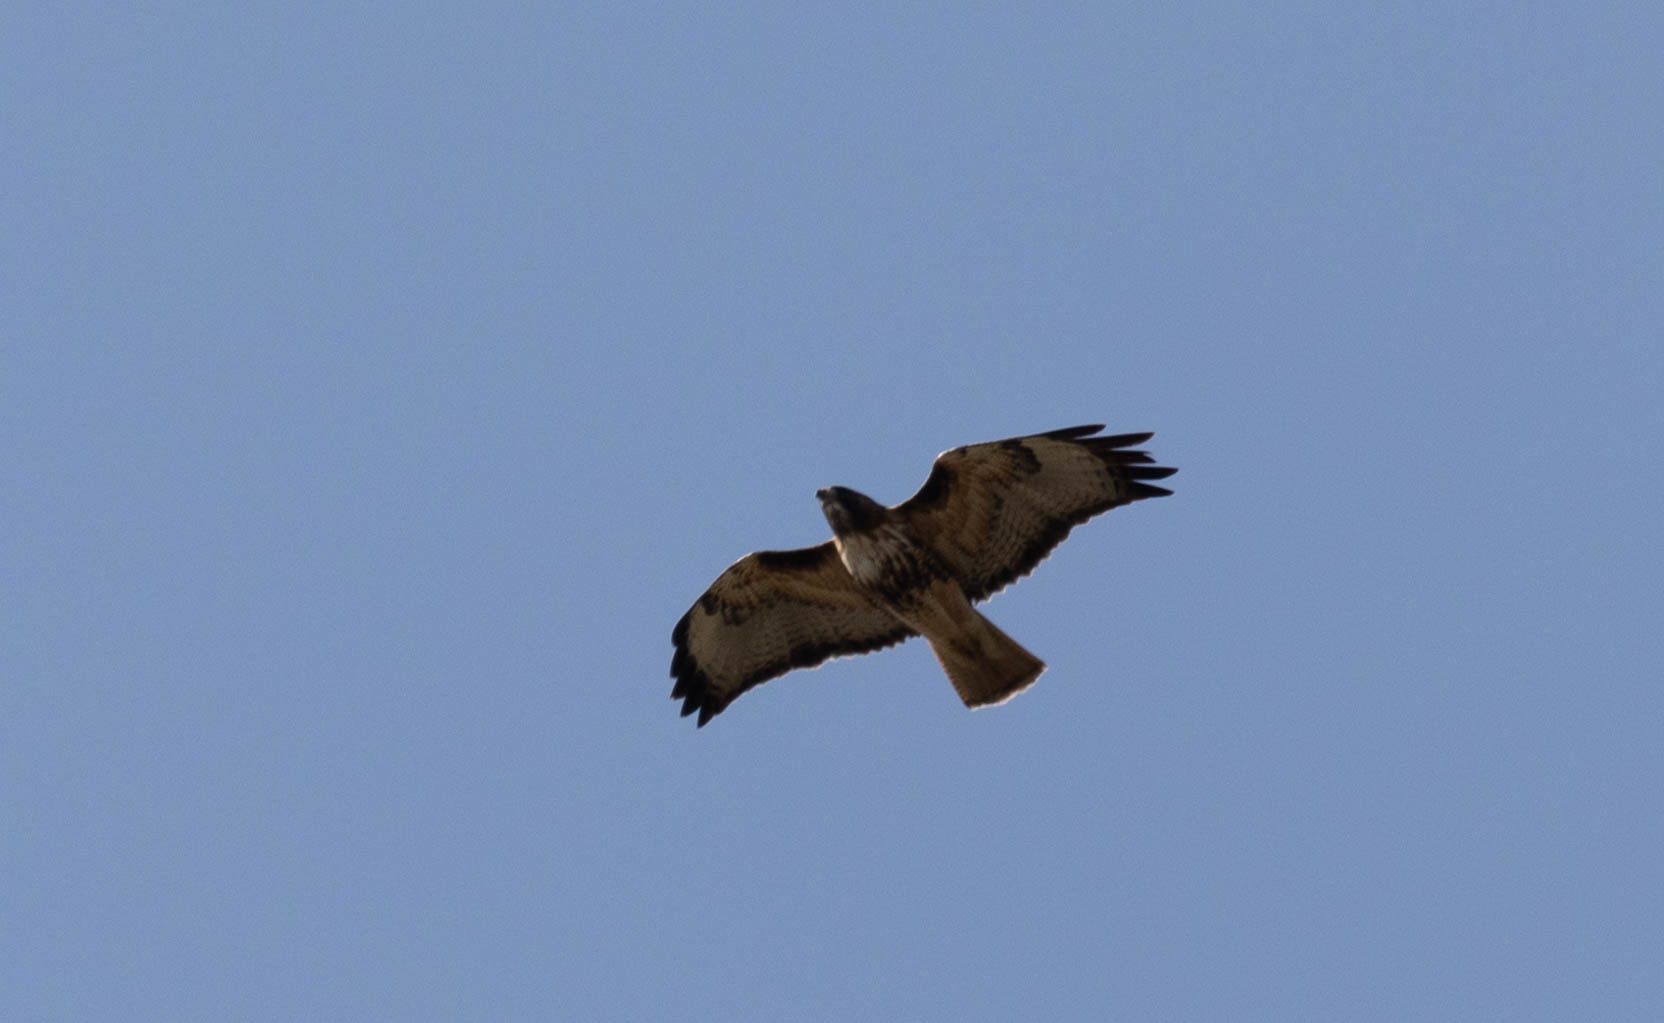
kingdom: Animalia
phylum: Chordata
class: Aves
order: Accipitriformes
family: Accipitridae
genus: Buteo
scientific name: Buteo jamaicensis
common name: Red-tailed hawk
